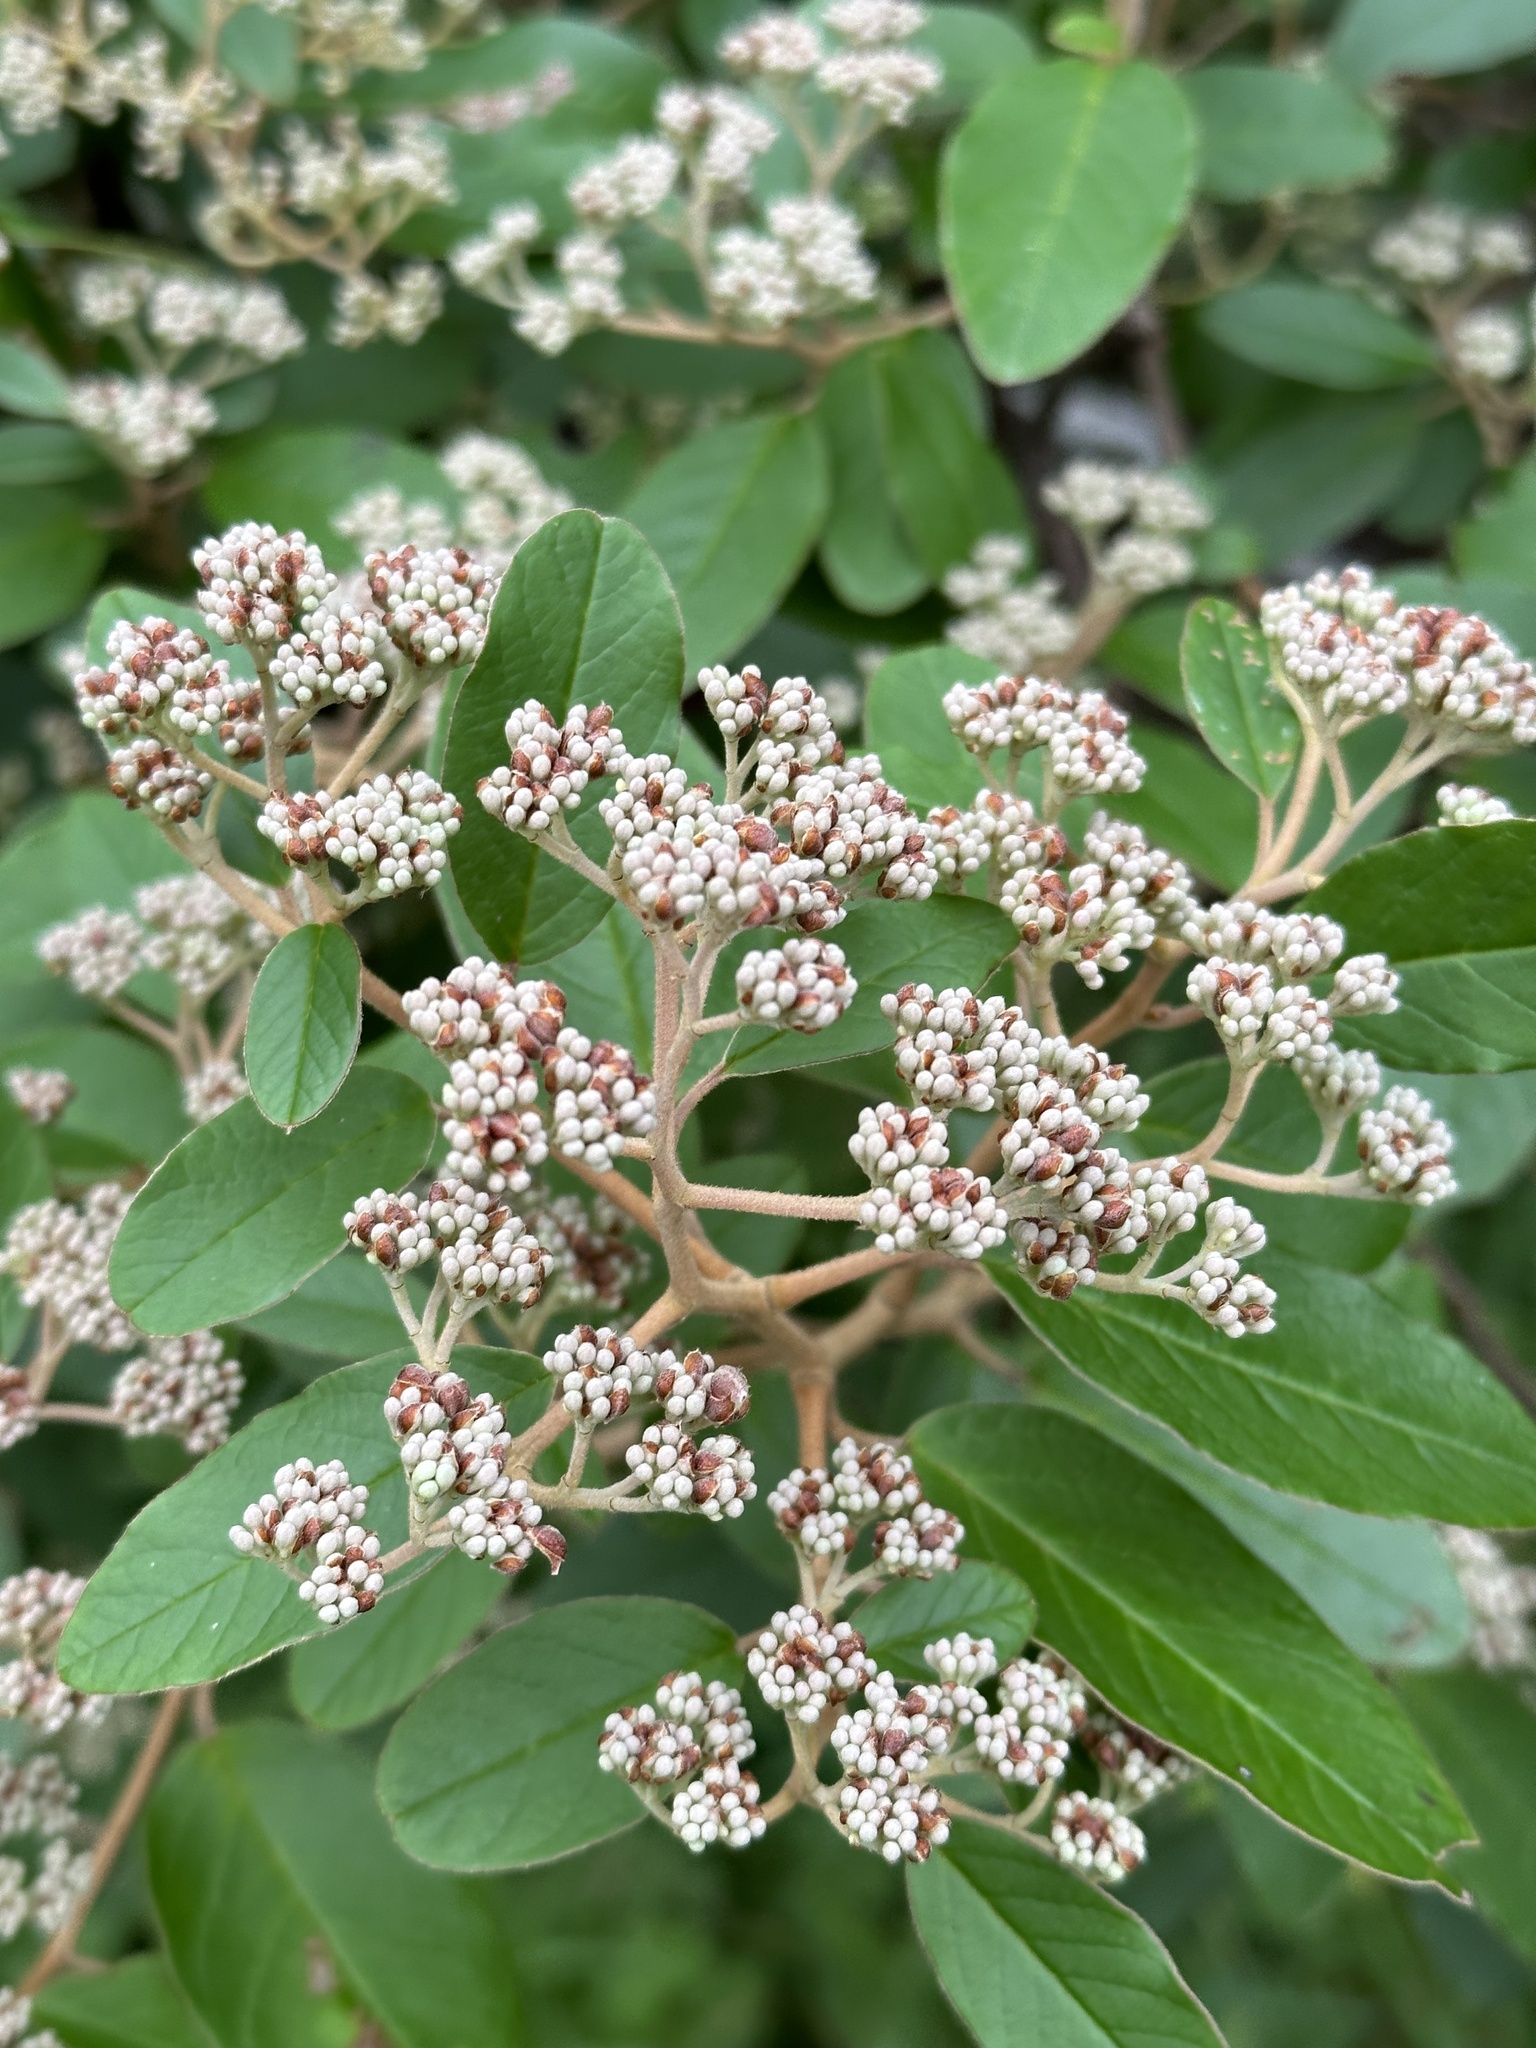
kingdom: Plantae
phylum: Tracheophyta
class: Magnoliopsida
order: Rosales
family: Rhamnaceae
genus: Pomaderris
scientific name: Pomaderris kumeraho
